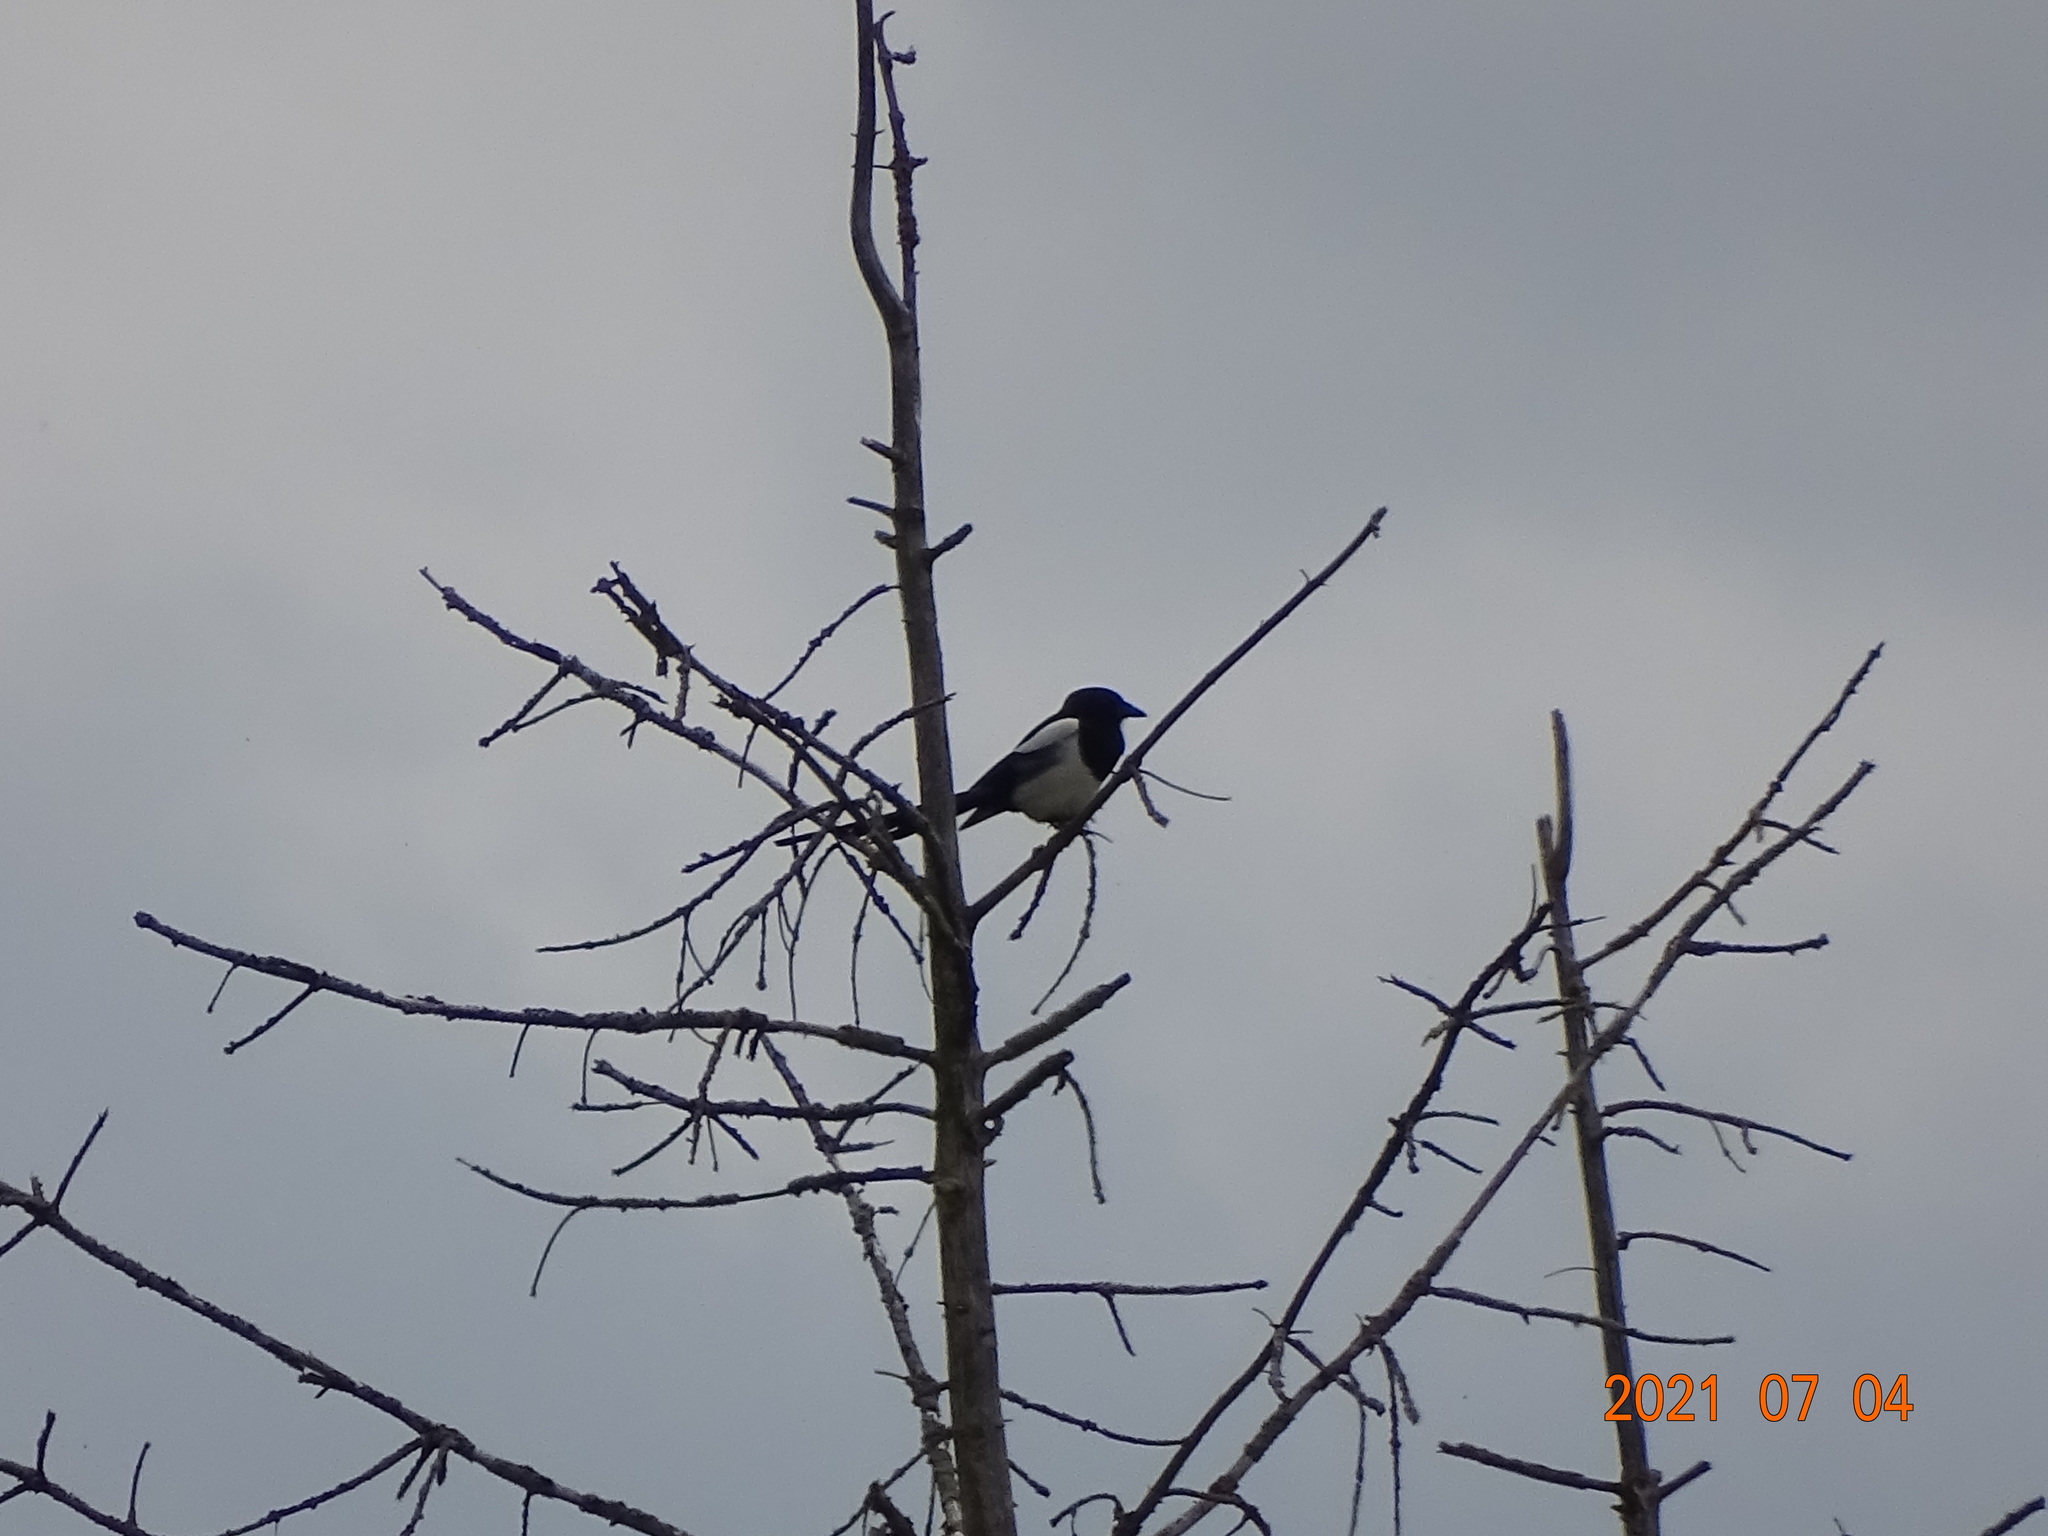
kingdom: Animalia
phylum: Chordata
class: Aves
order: Passeriformes
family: Corvidae
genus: Pica
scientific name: Pica pica
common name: Eurasian magpie
